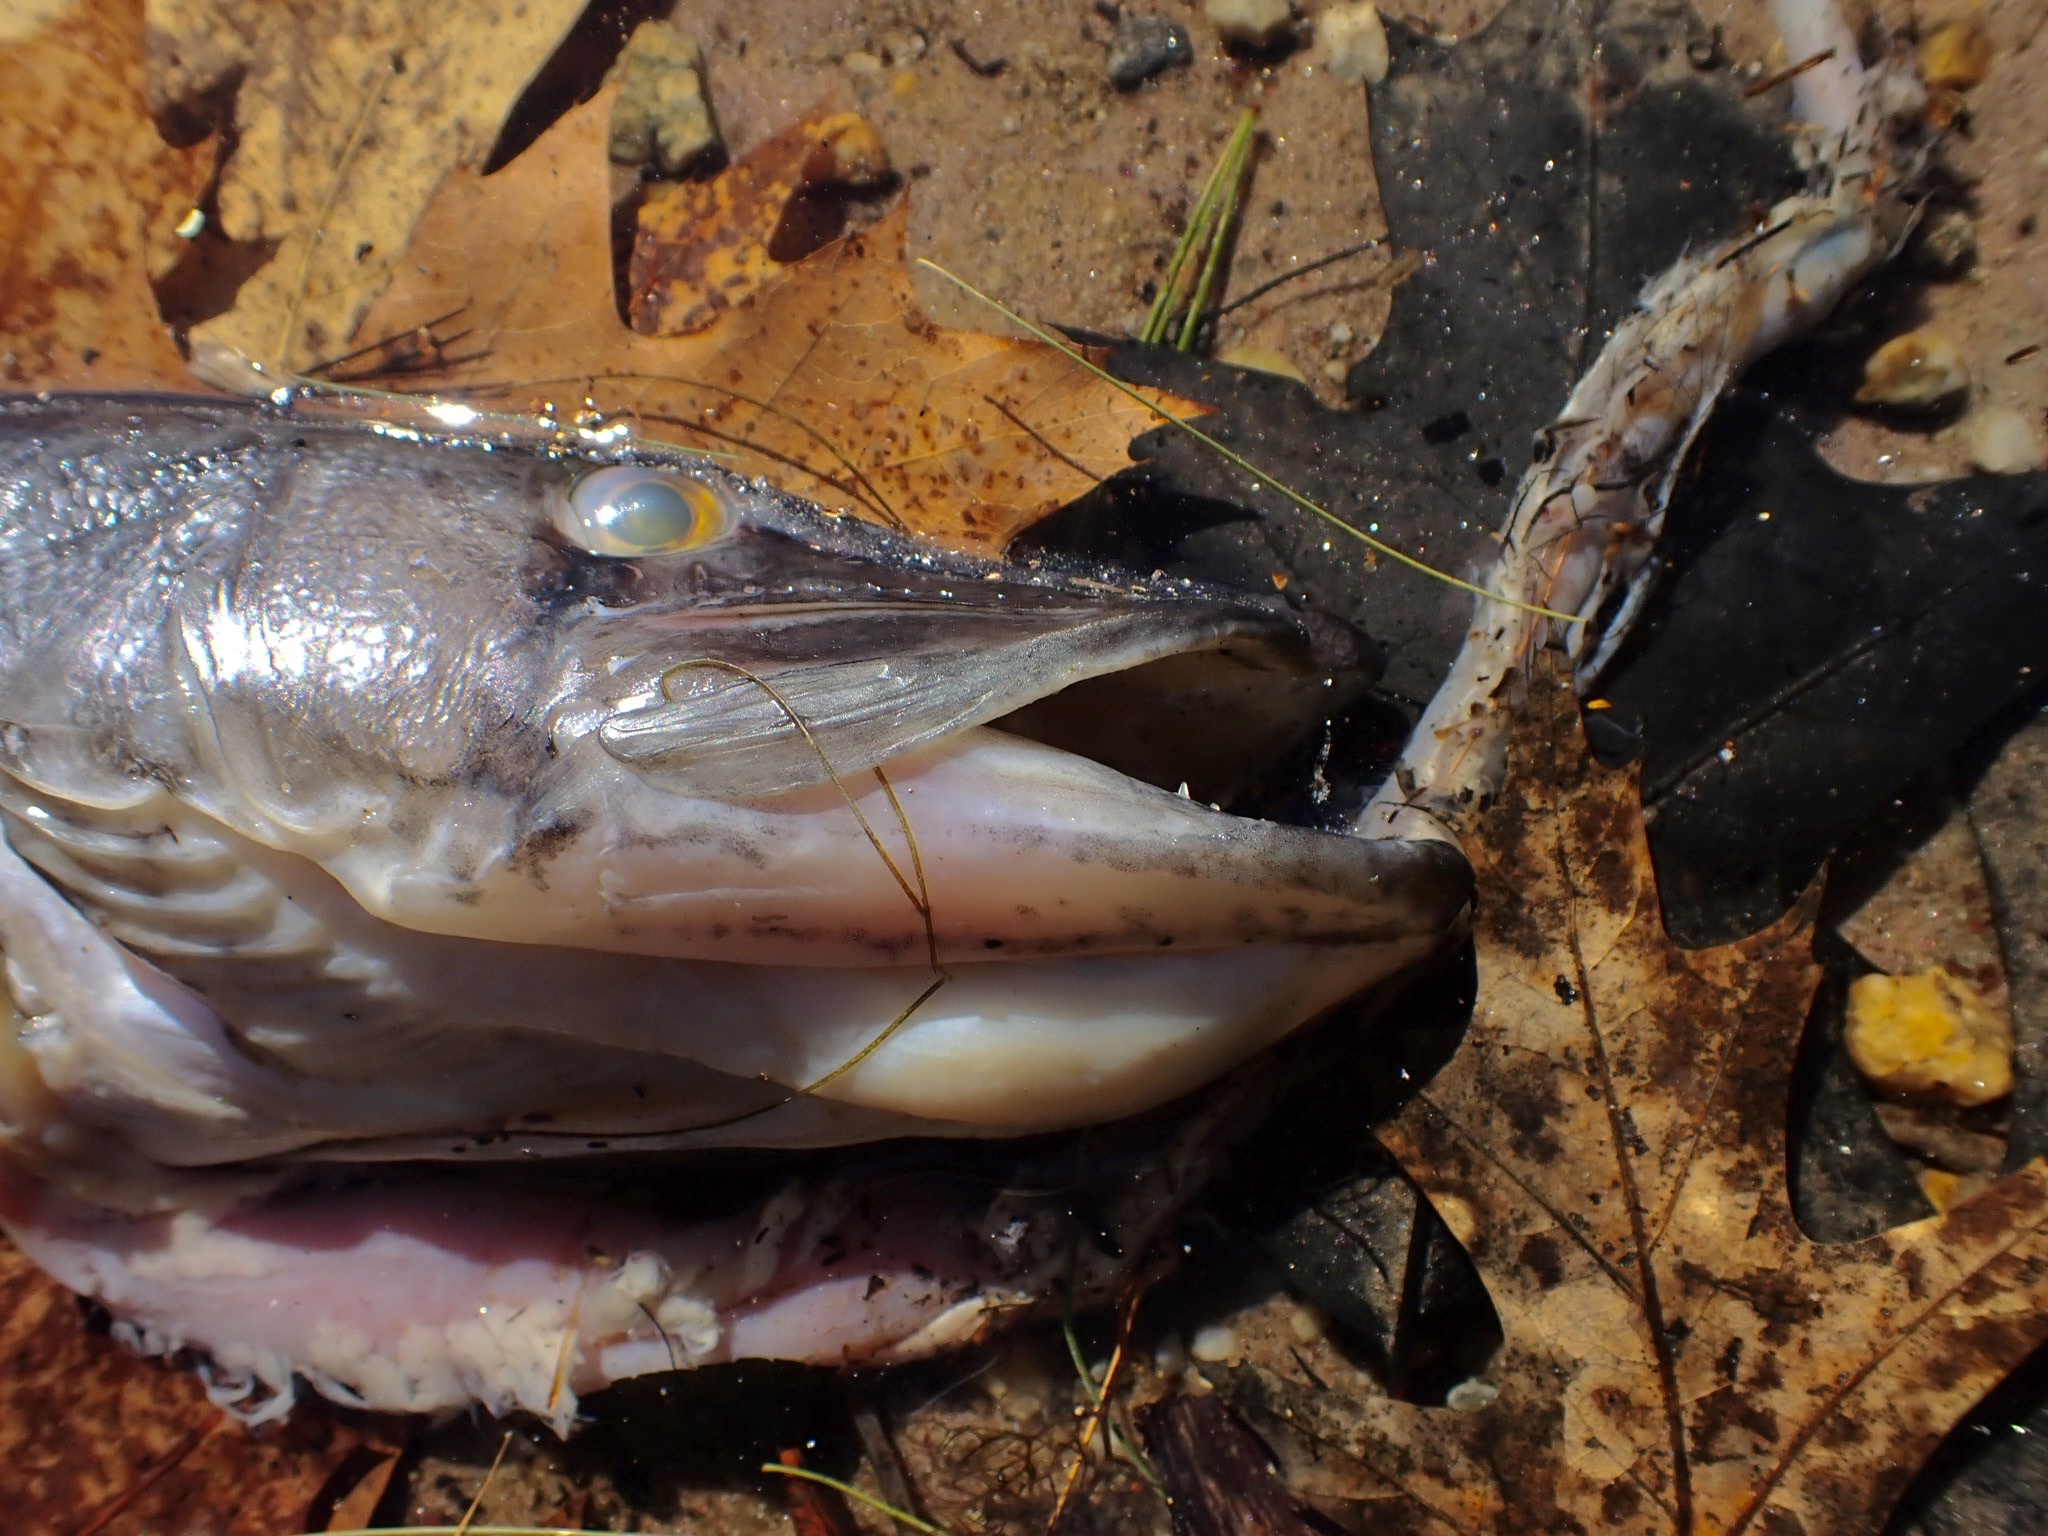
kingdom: Animalia
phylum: Chordata
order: Esociformes
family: Esocidae
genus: Esox
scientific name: Esox niger
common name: Chain pickerel
